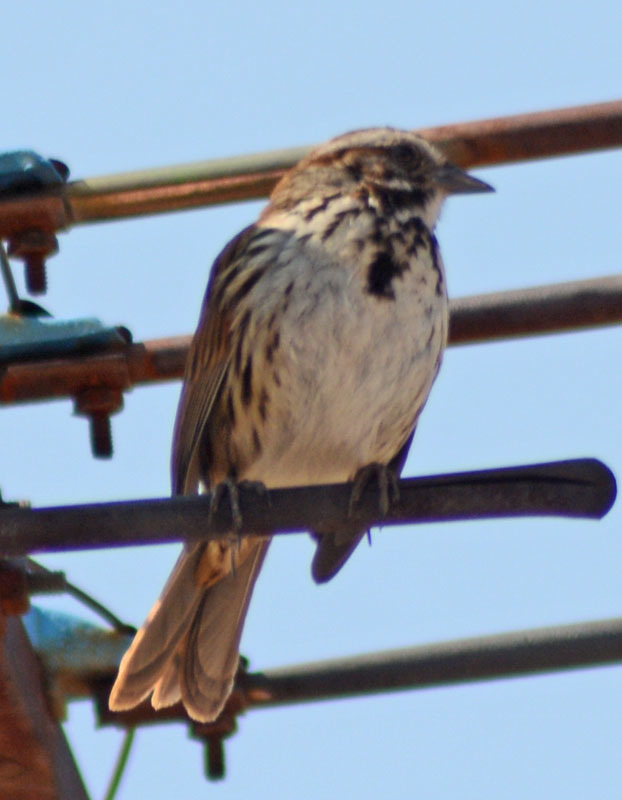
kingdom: Animalia
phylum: Chordata
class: Aves
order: Passeriformes
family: Passerellidae
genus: Melospiza
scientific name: Melospiza melodia
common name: Song sparrow
